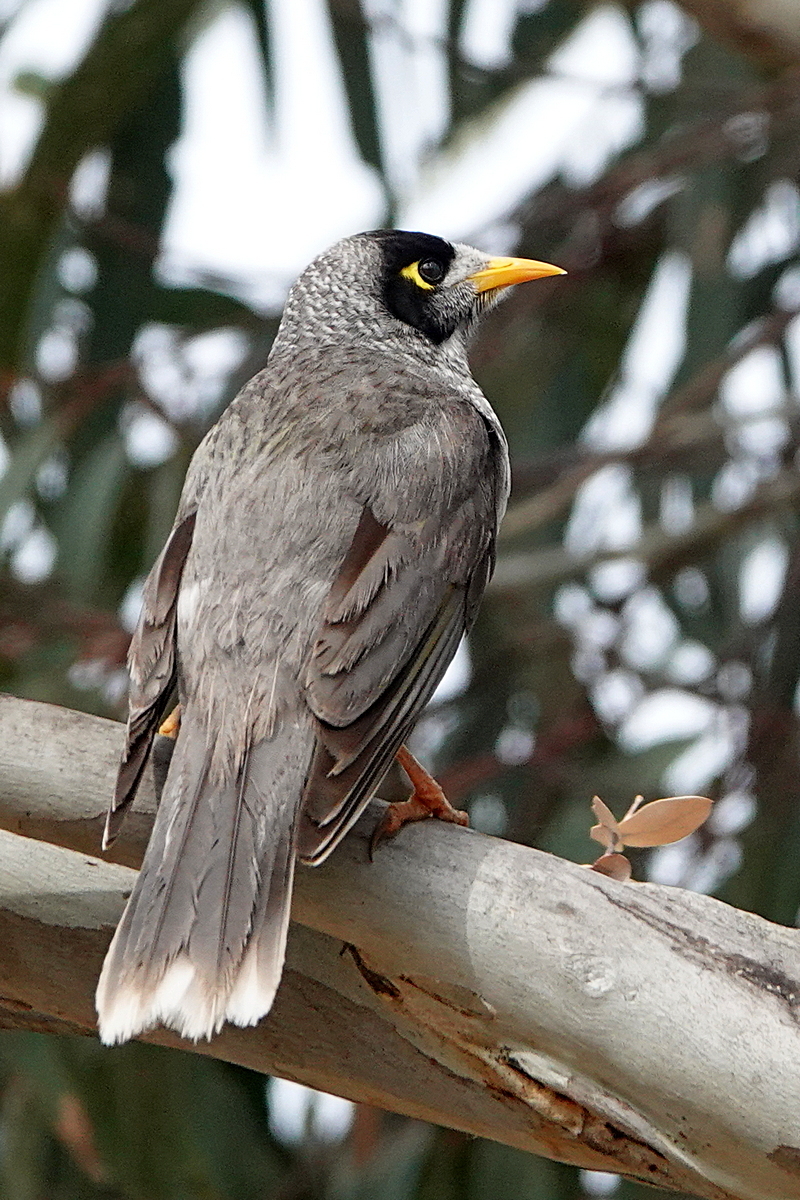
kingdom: Animalia
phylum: Chordata
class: Aves
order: Passeriformes
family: Meliphagidae
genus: Manorina
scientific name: Manorina melanocephala
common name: Noisy miner
